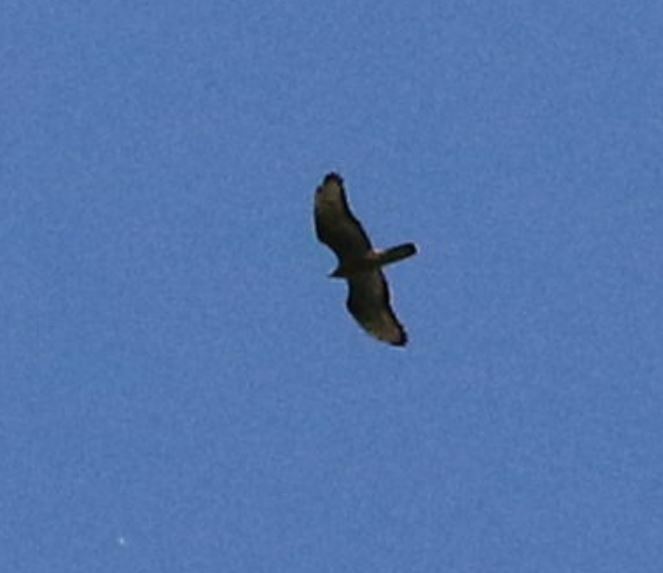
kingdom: Animalia
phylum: Chordata
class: Aves
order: Accipitriformes
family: Accipitridae
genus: Pernis
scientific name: Pernis apivorus
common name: European honey buzzard
